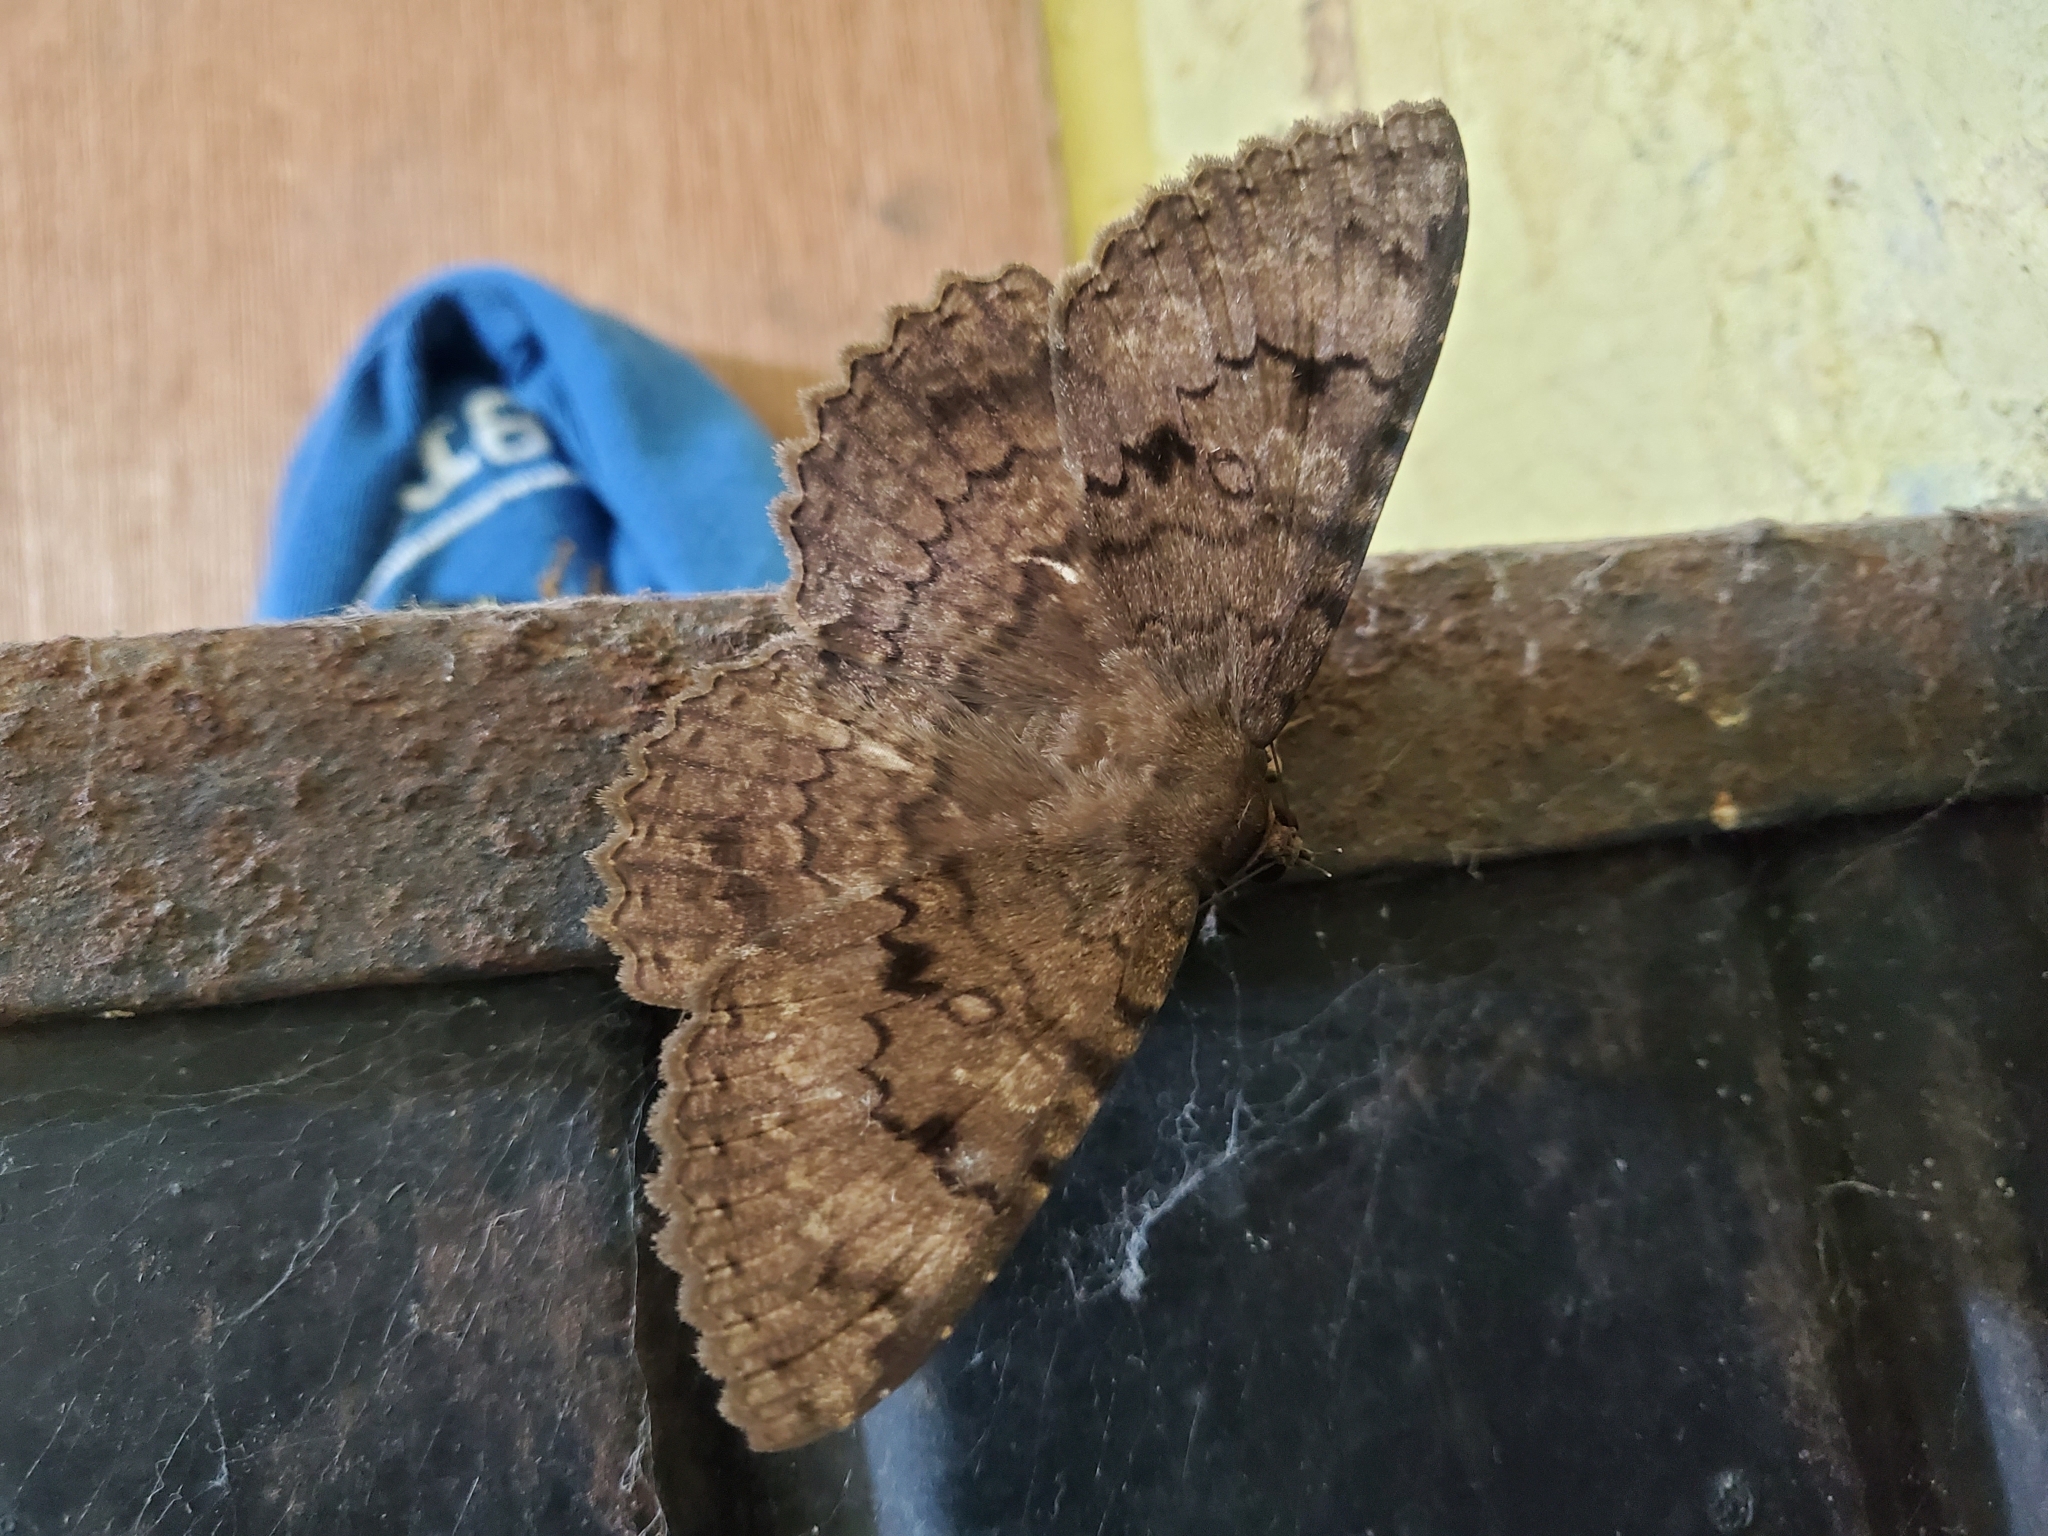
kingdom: Animalia
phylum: Arthropoda
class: Insecta
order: Lepidoptera
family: Erebidae
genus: Latebraria
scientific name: Latebraria amphipyroides
